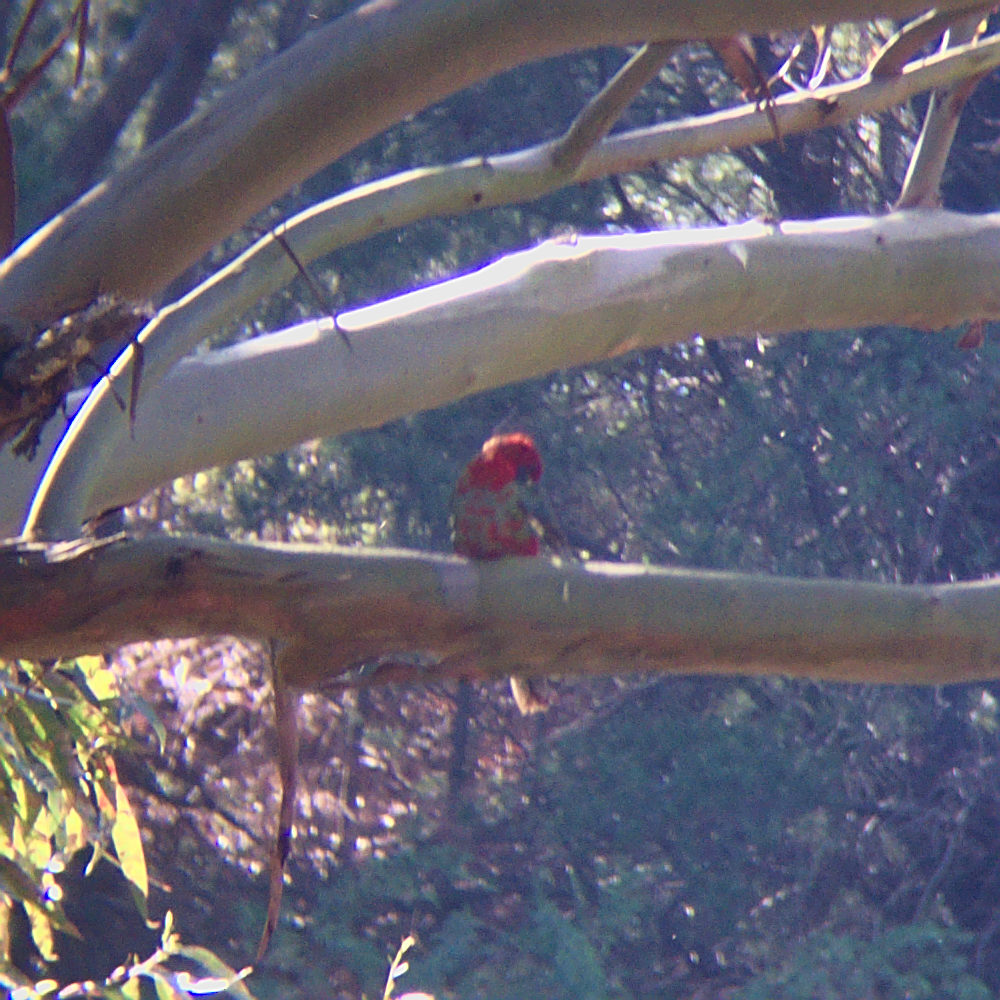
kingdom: Animalia
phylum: Chordata
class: Aves
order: Psittaciformes
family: Psittacidae
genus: Platycercus
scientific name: Platycercus elegans
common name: Crimson rosella
